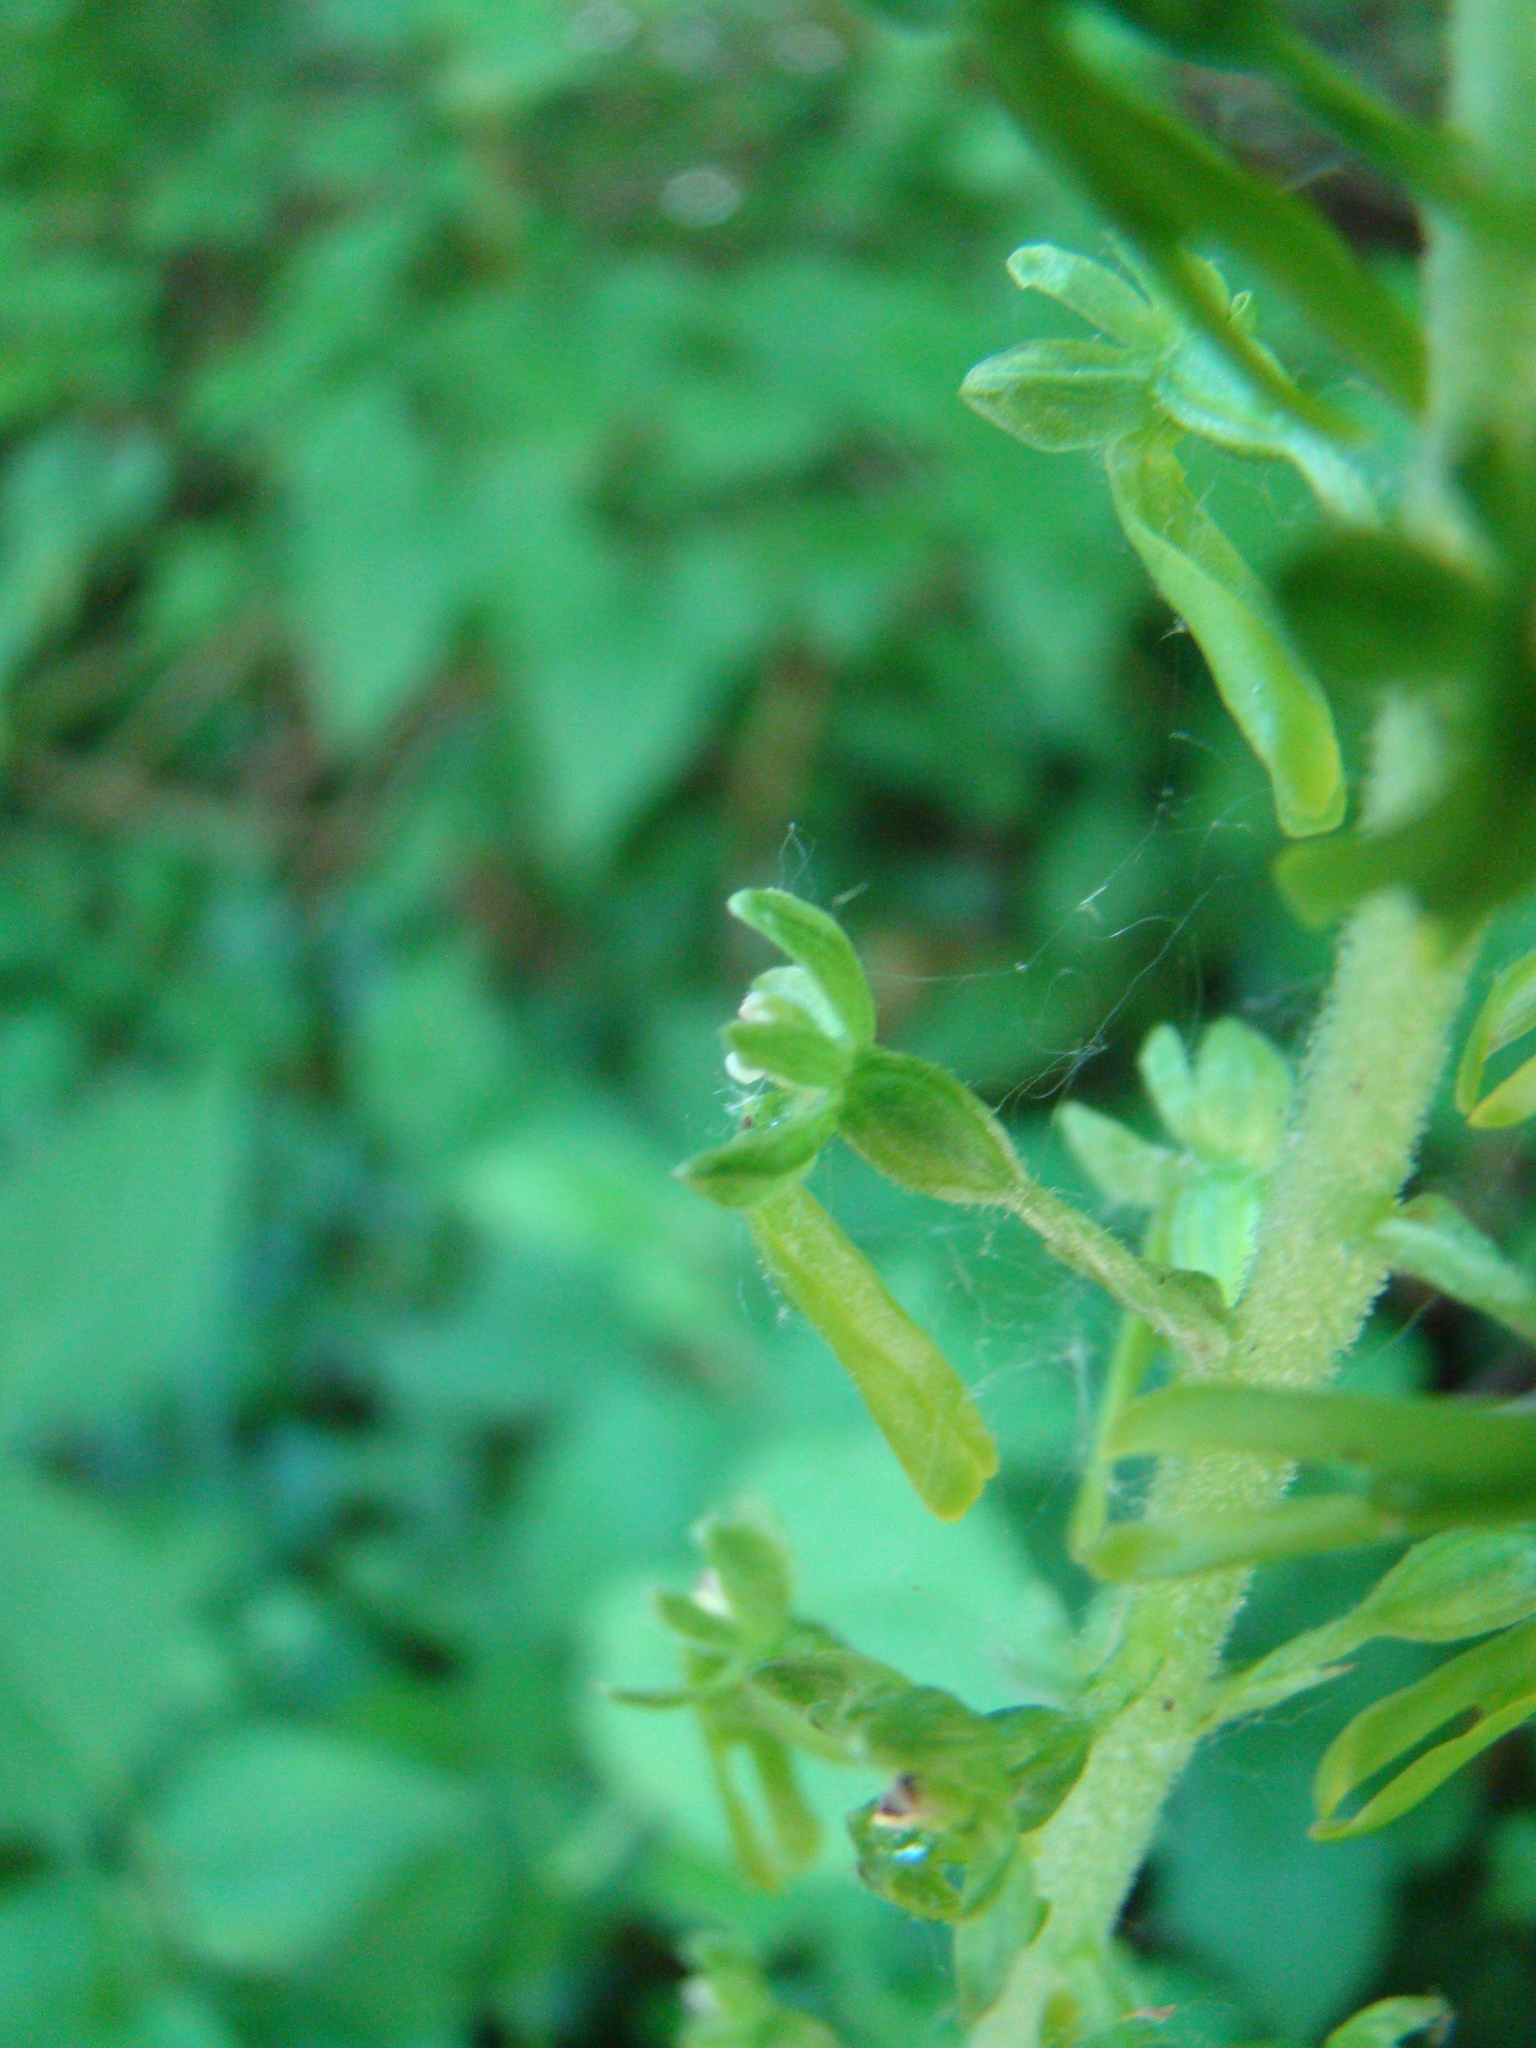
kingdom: Plantae
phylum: Tracheophyta
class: Liliopsida
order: Asparagales
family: Orchidaceae
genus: Neottia
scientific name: Neottia ovata
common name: Common twayblade
